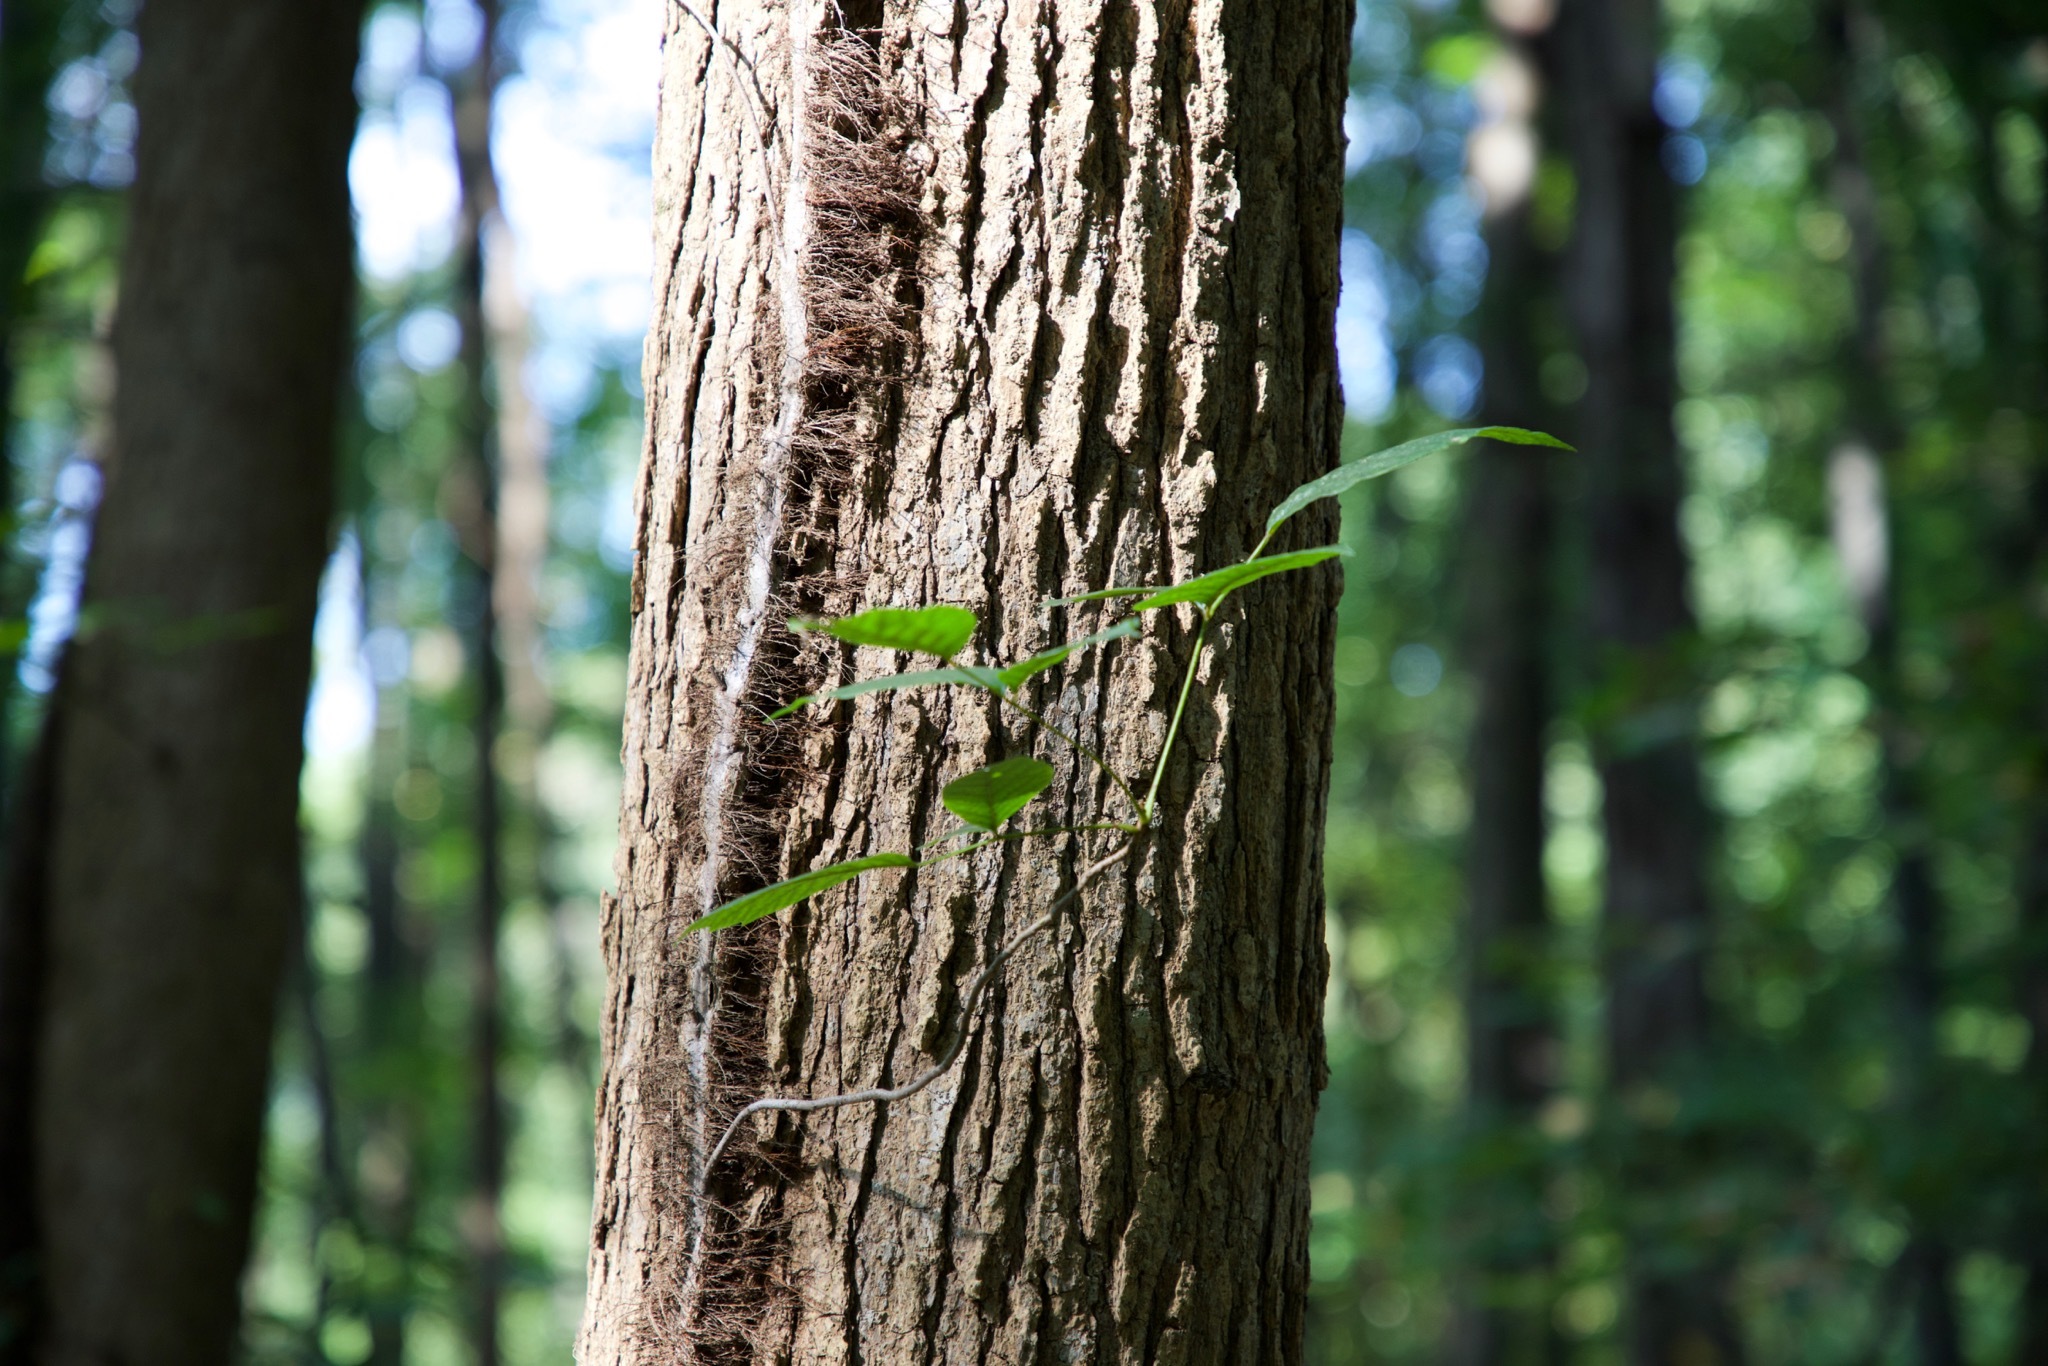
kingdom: Plantae
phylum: Tracheophyta
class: Magnoliopsida
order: Sapindales
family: Anacardiaceae
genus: Toxicodendron
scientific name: Toxicodendron radicans
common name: Poison ivy
